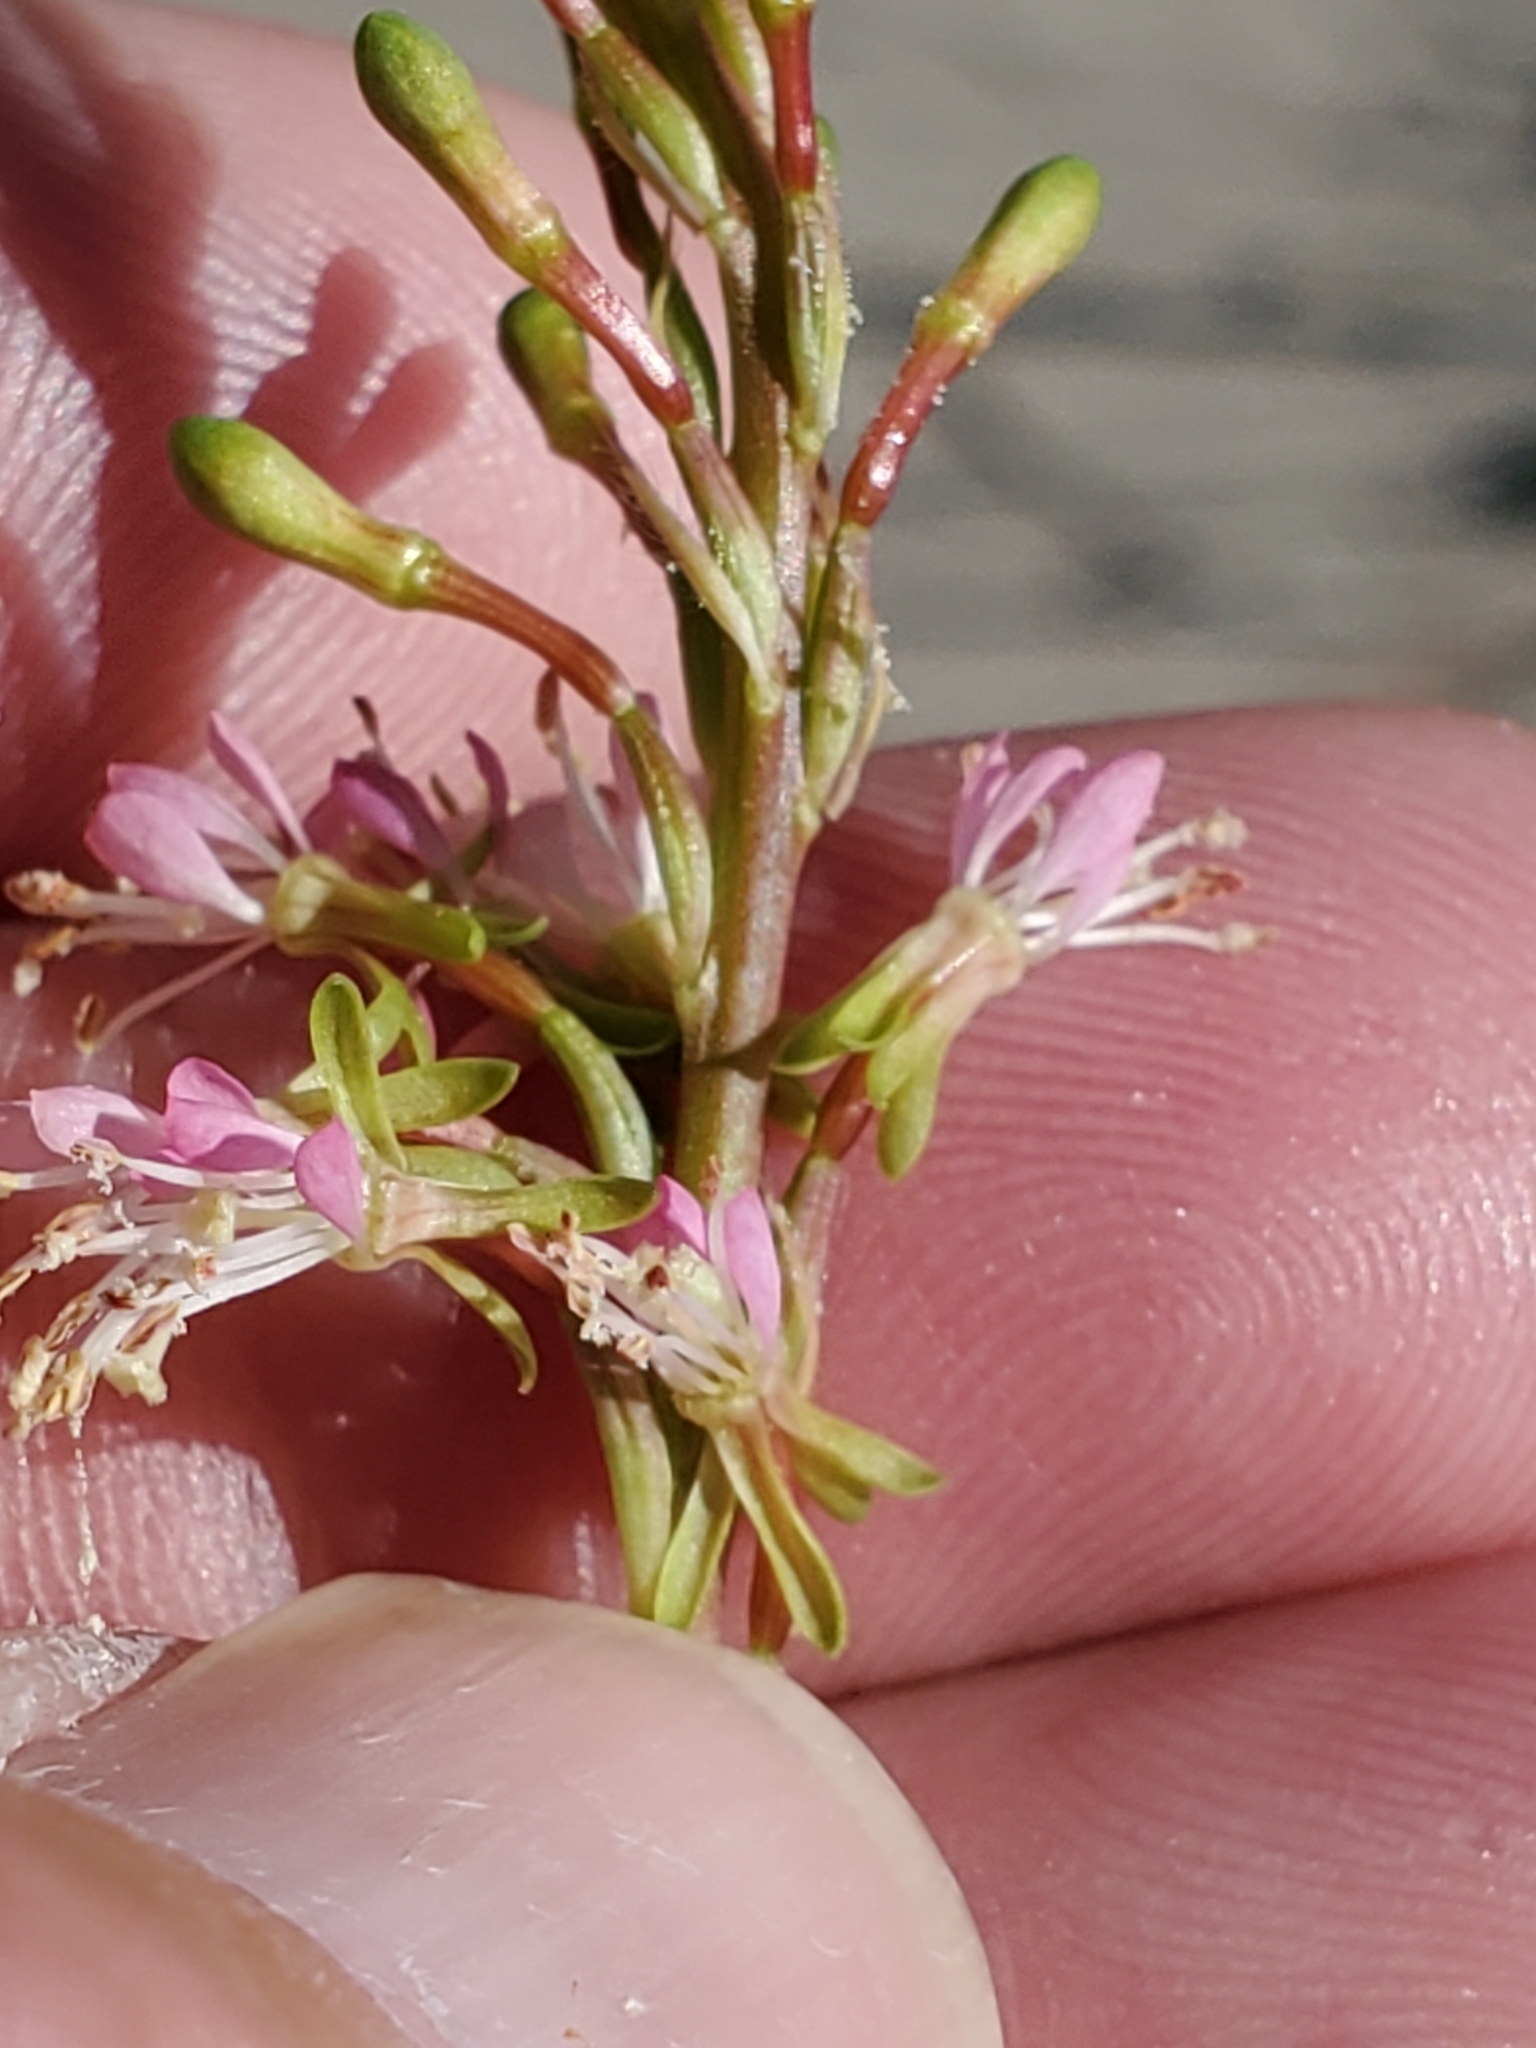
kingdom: Plantae
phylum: Tracheophyta
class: Magnoliopsida
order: Myrtales
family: Onagraceae
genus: Oenothera
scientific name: Oenothera curtiflora
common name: Velvetweed
